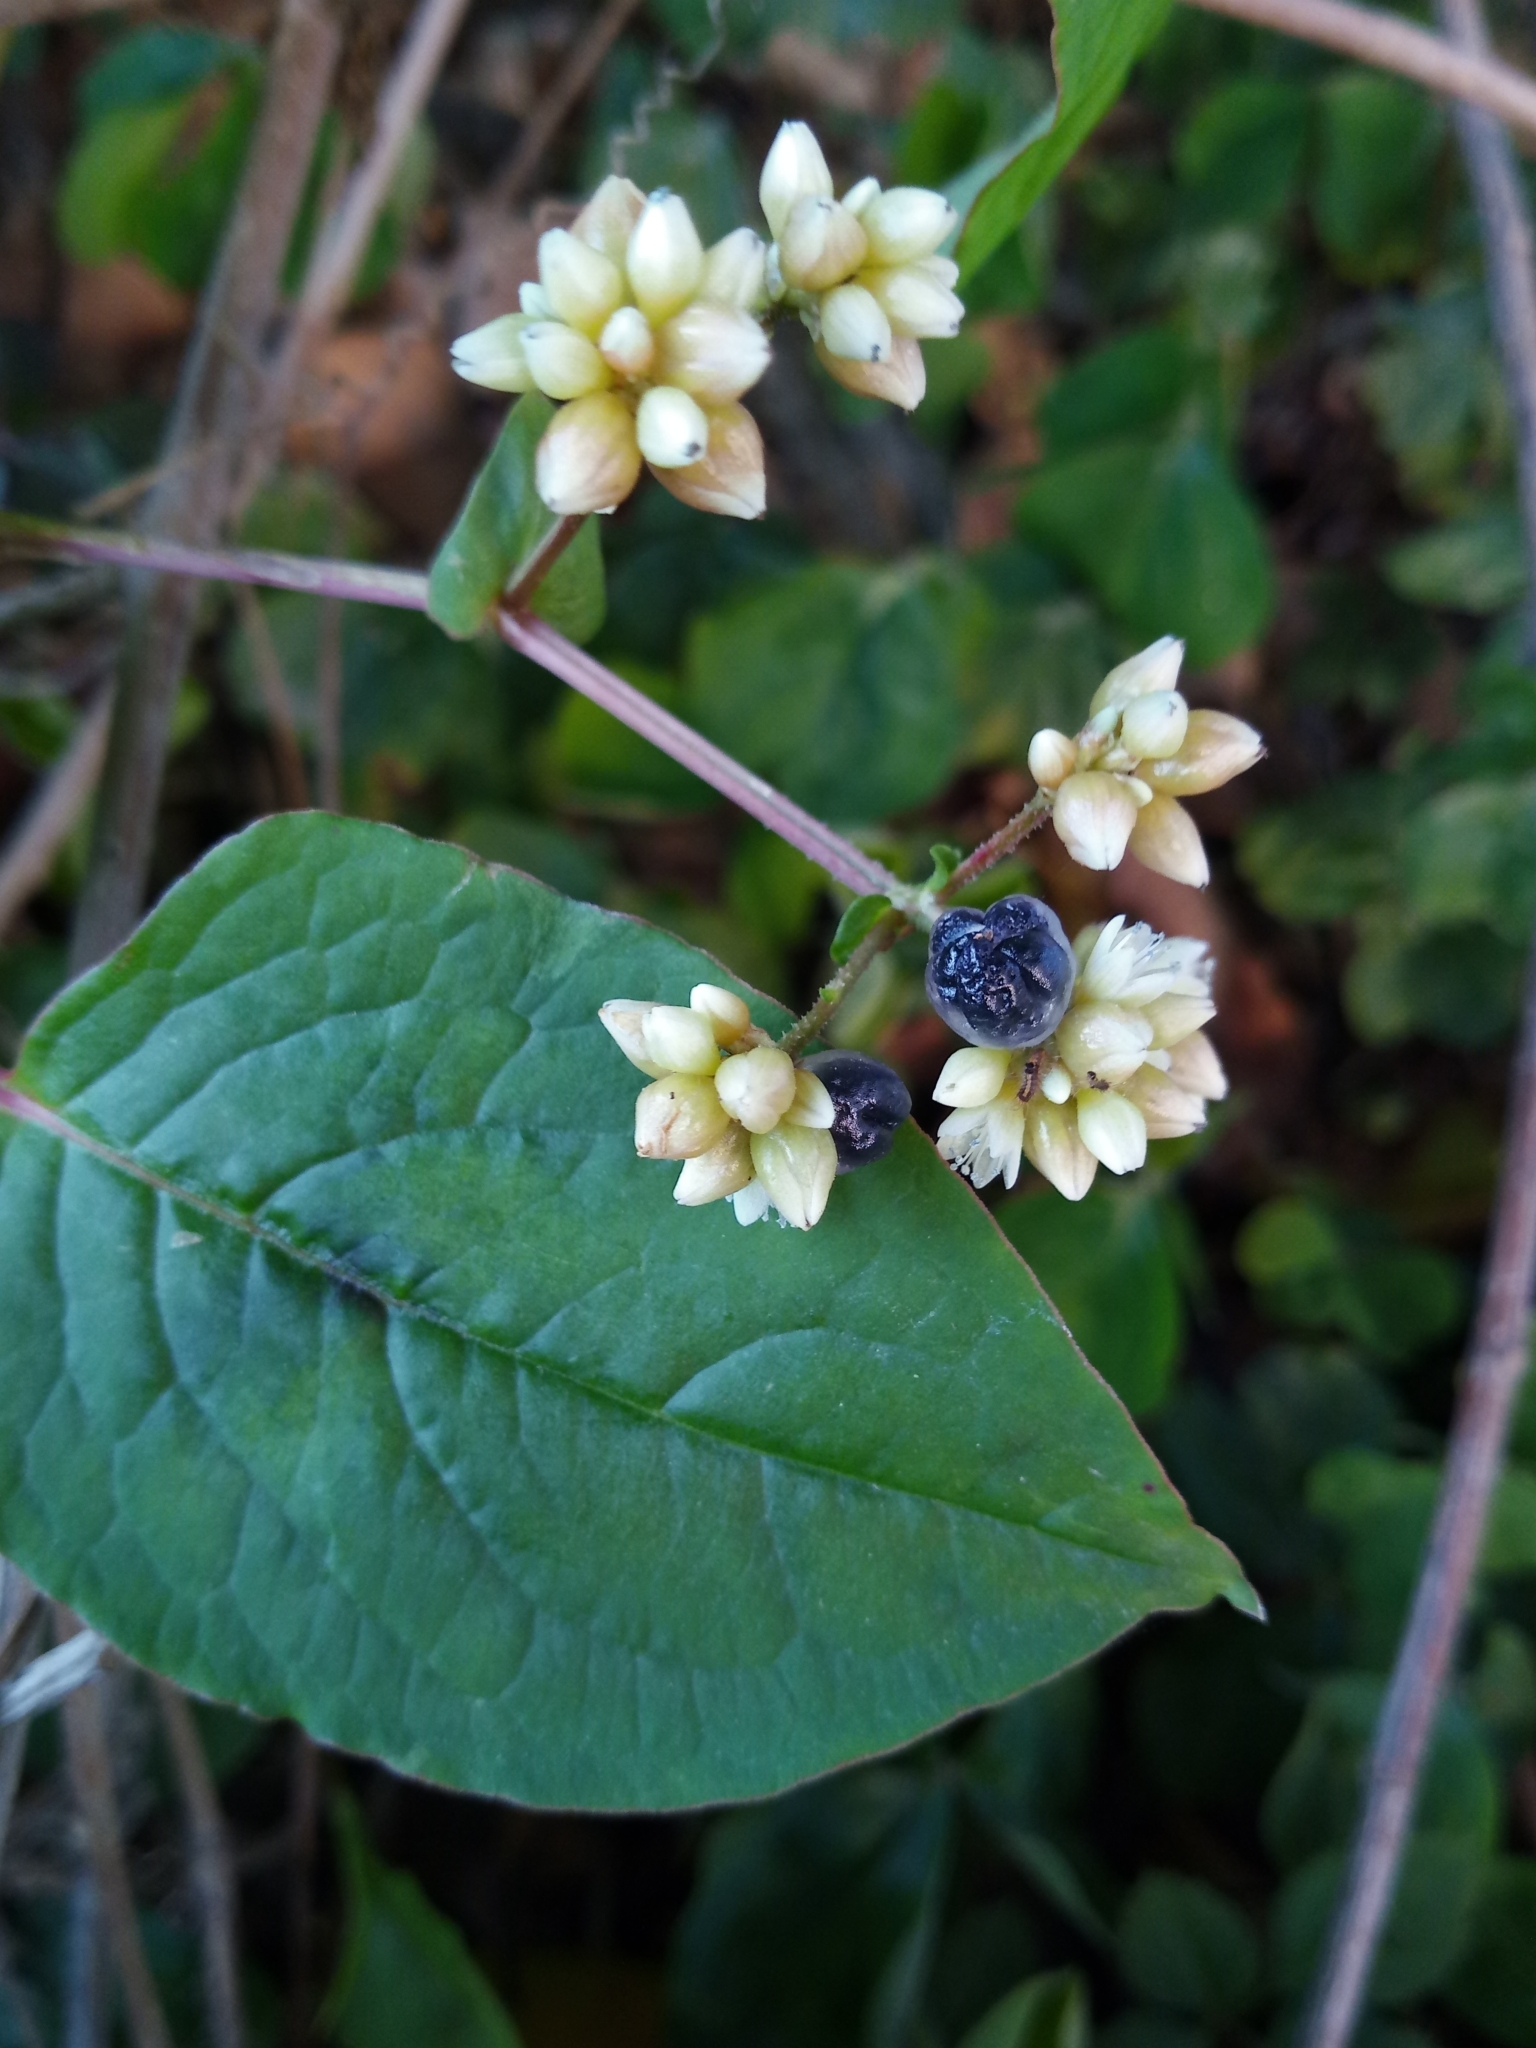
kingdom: Plantae
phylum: Tracheophyta
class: Magnoliopsida
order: Caryophyllales
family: Polygonaceae
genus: Persicaria
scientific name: Persicaria chinensis
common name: Chinese knotweed
